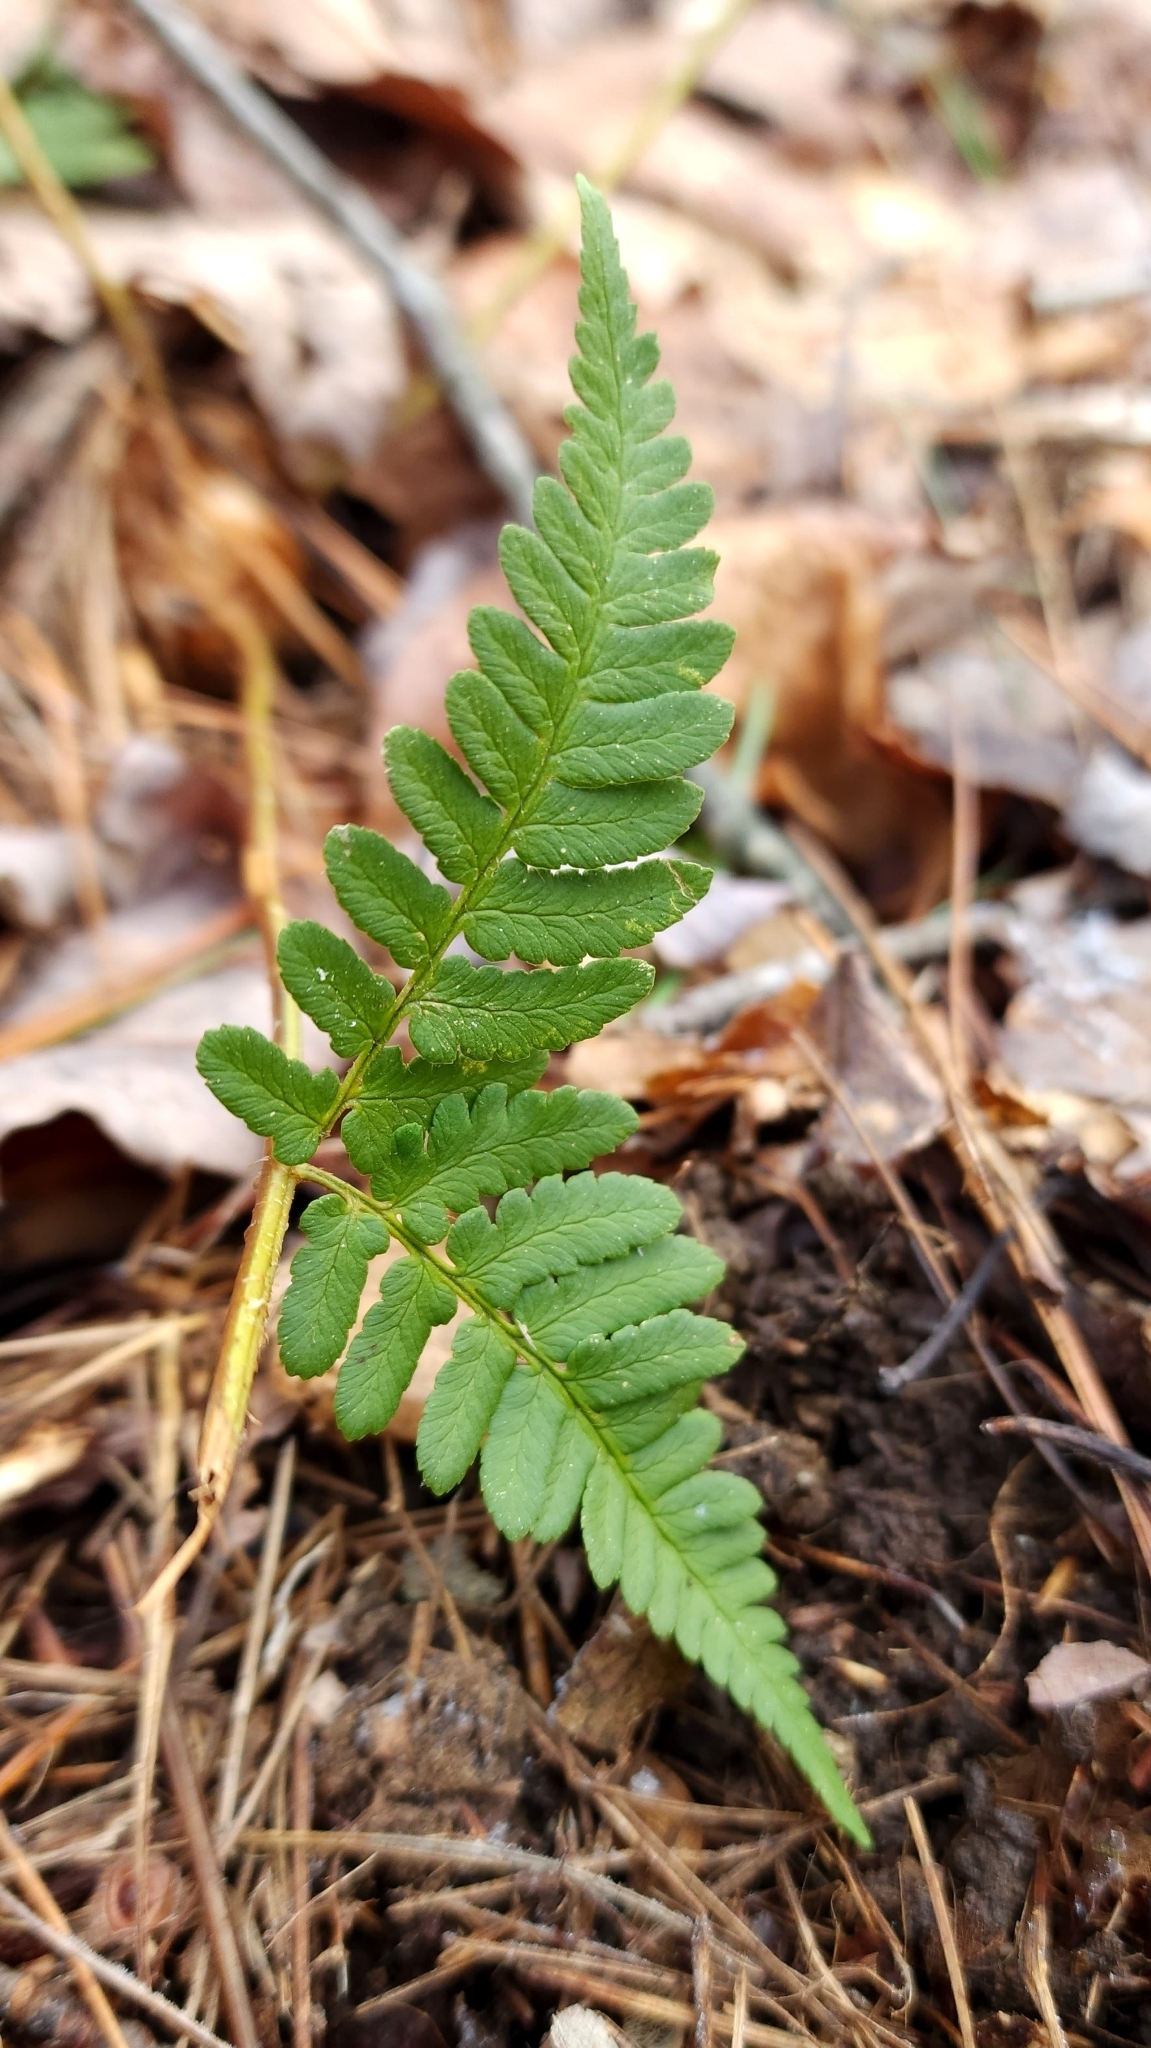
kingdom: Plantae
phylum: Tracheophyta
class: Polypodiopsida
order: Polypodiales
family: Dryopteridaceae
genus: Dryopteris
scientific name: Dryopteris marginalis
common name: Marginal wood fern
